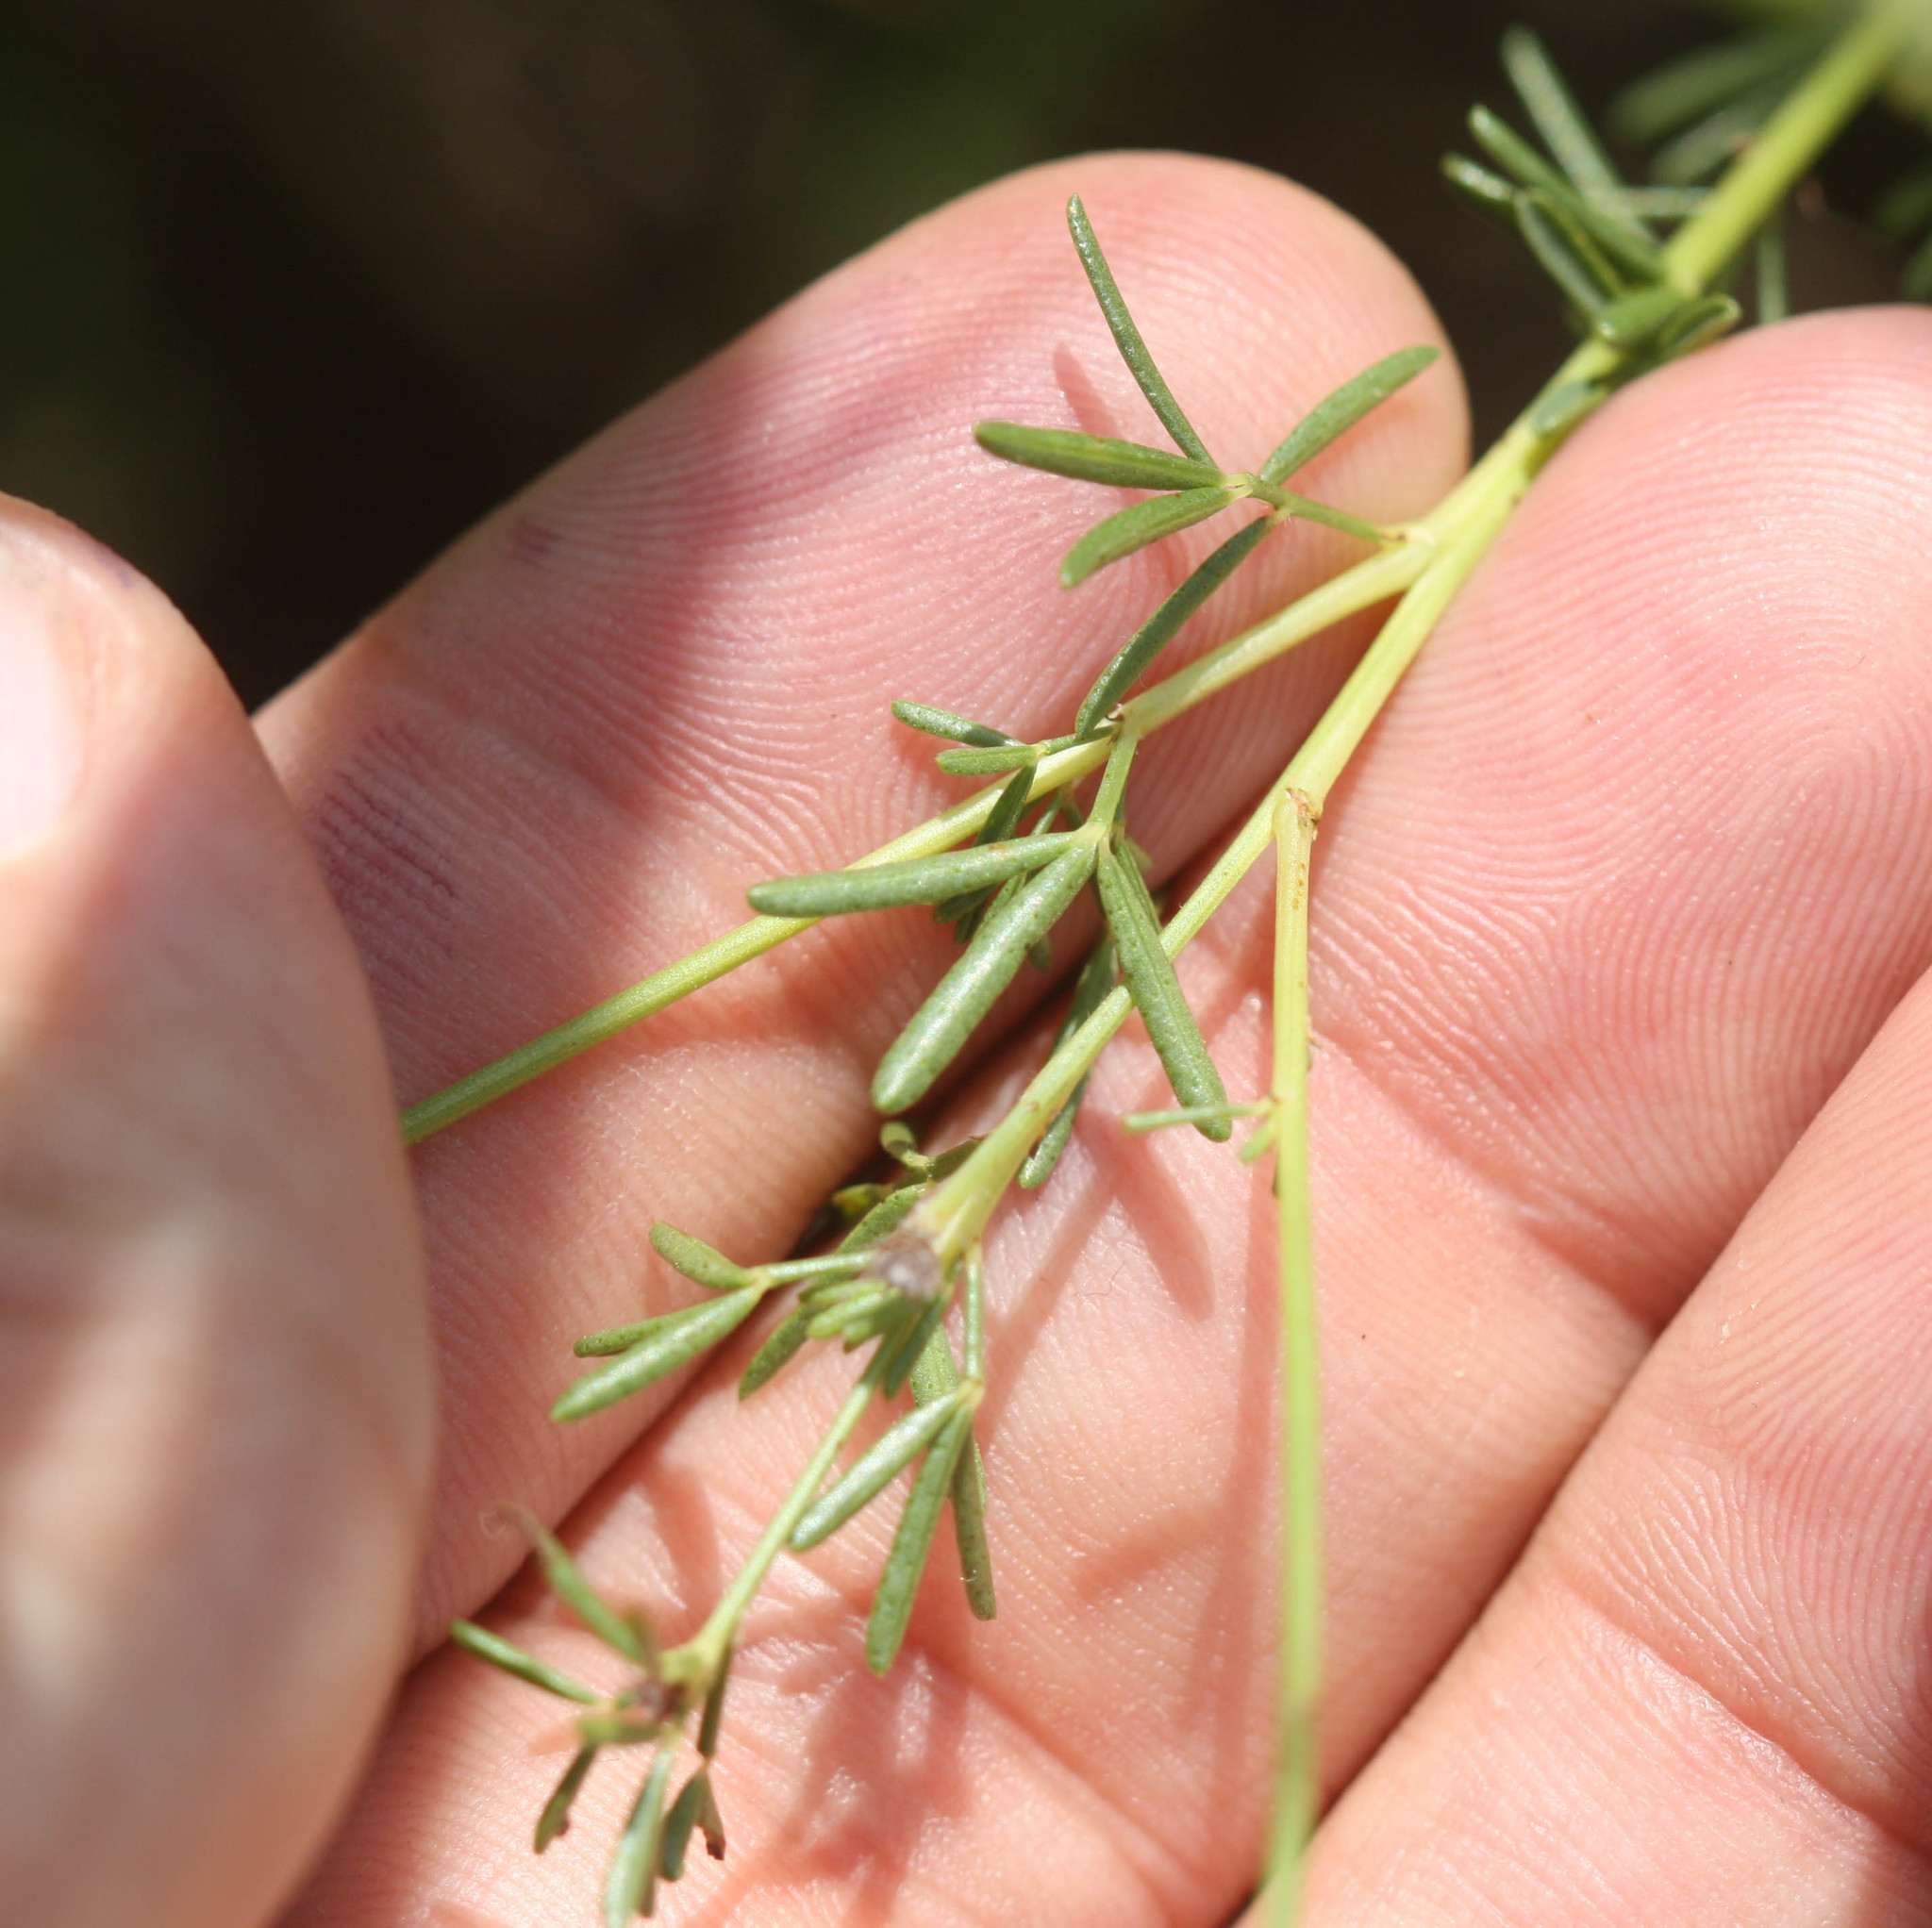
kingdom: Plantae
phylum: Tracheophyta
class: Magnoliopsida
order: Fabales
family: Fabaceae
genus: Dalea
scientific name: Dalea purpurea
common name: Purple prairie-clover
